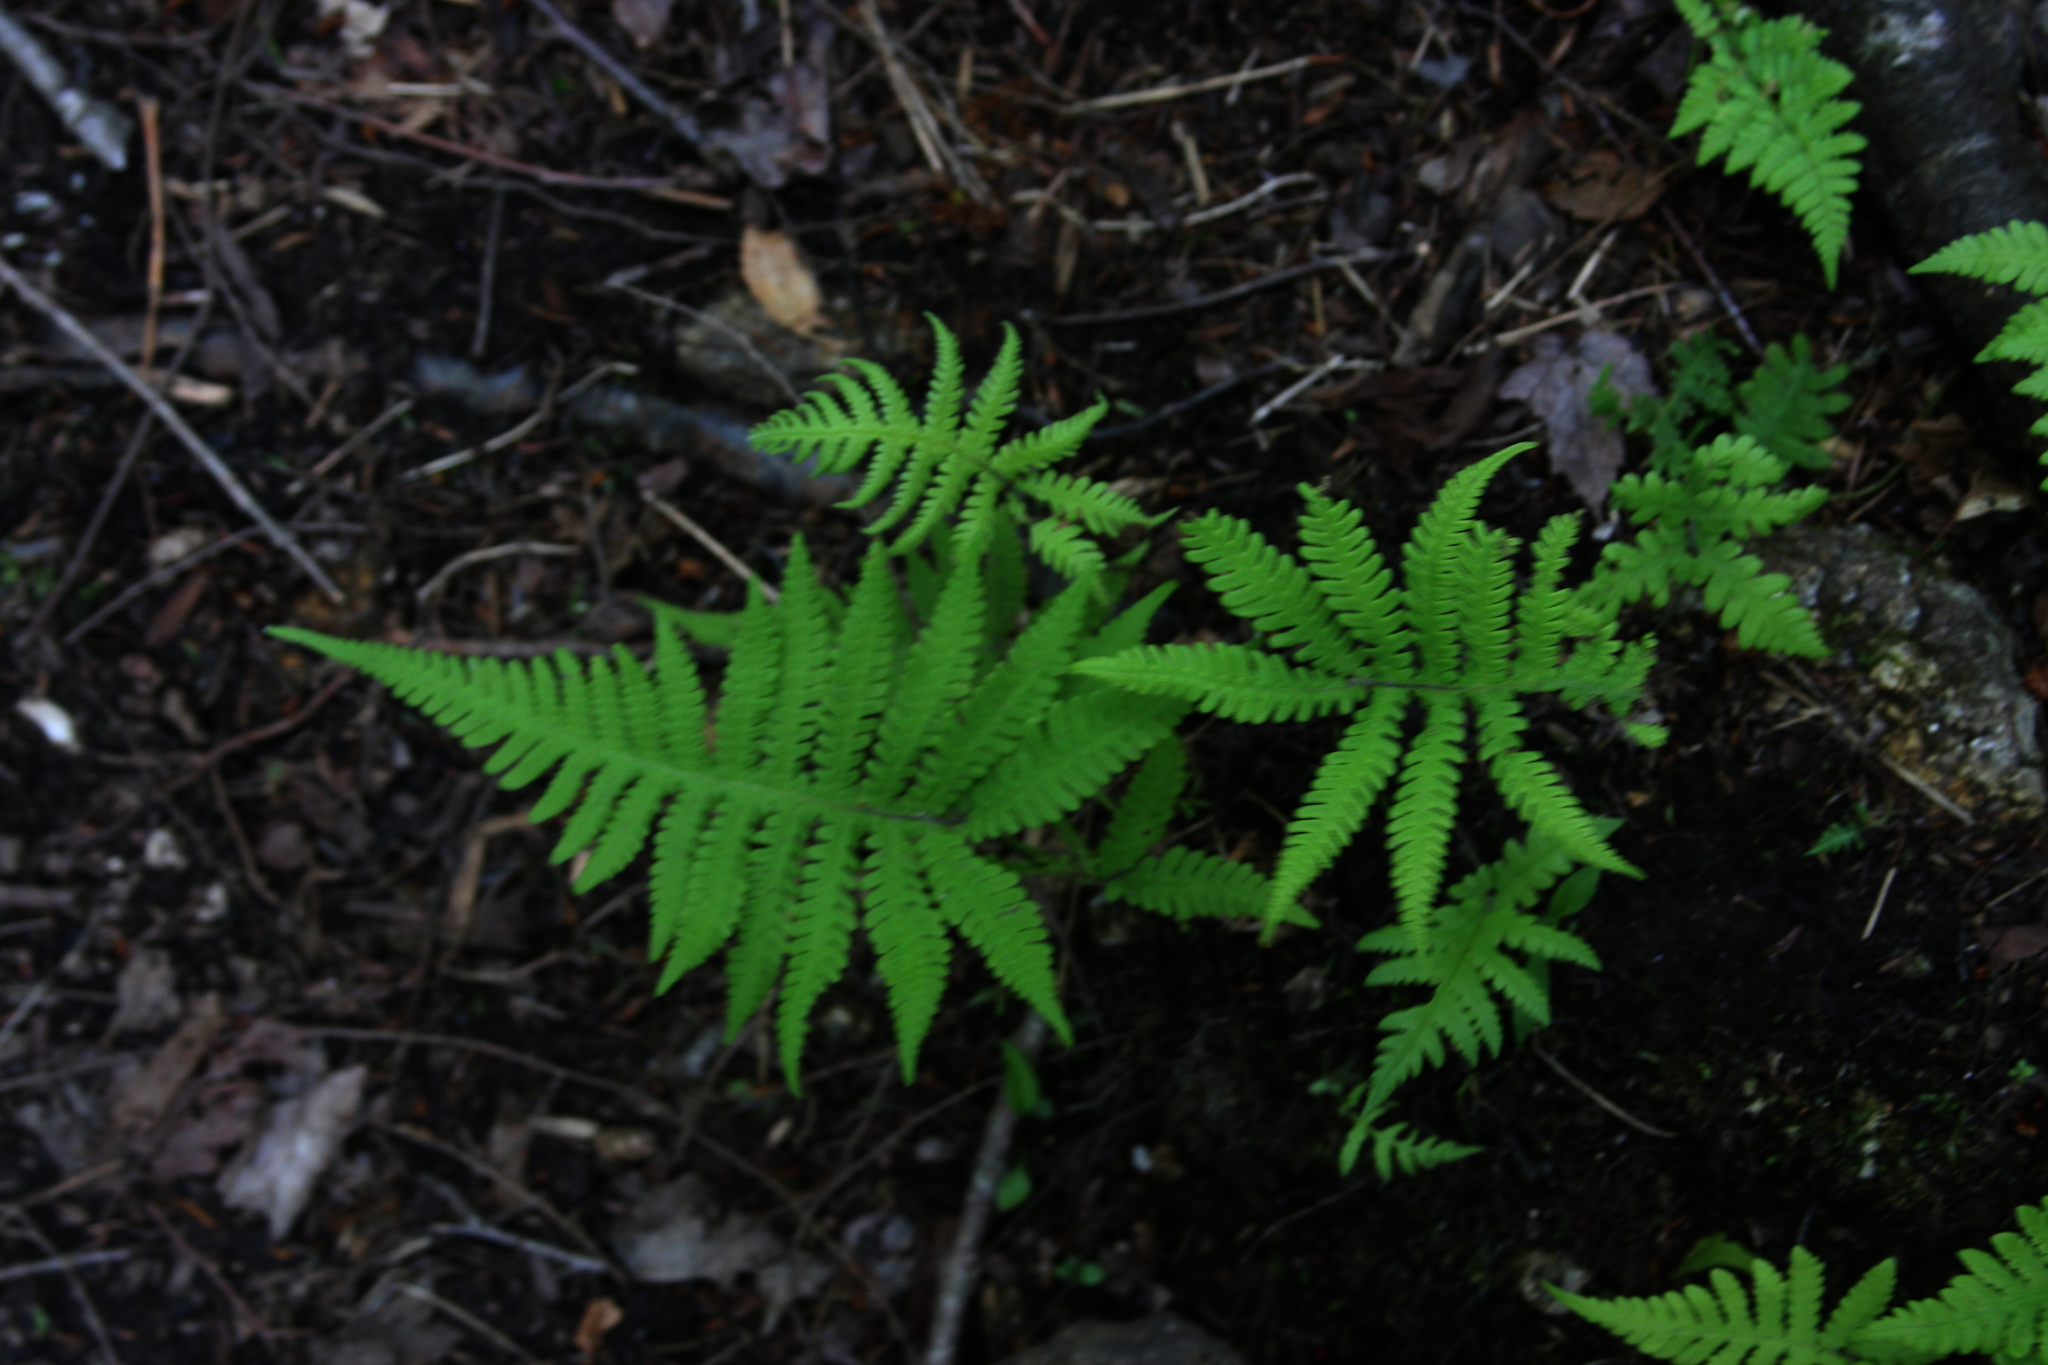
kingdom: Plantae
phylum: Tracheophyta
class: Polypodiopsida
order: Polypodiales
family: Thelypteridaceae
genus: Phegopteris
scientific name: Phegopteris connectilis
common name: Beech fern
